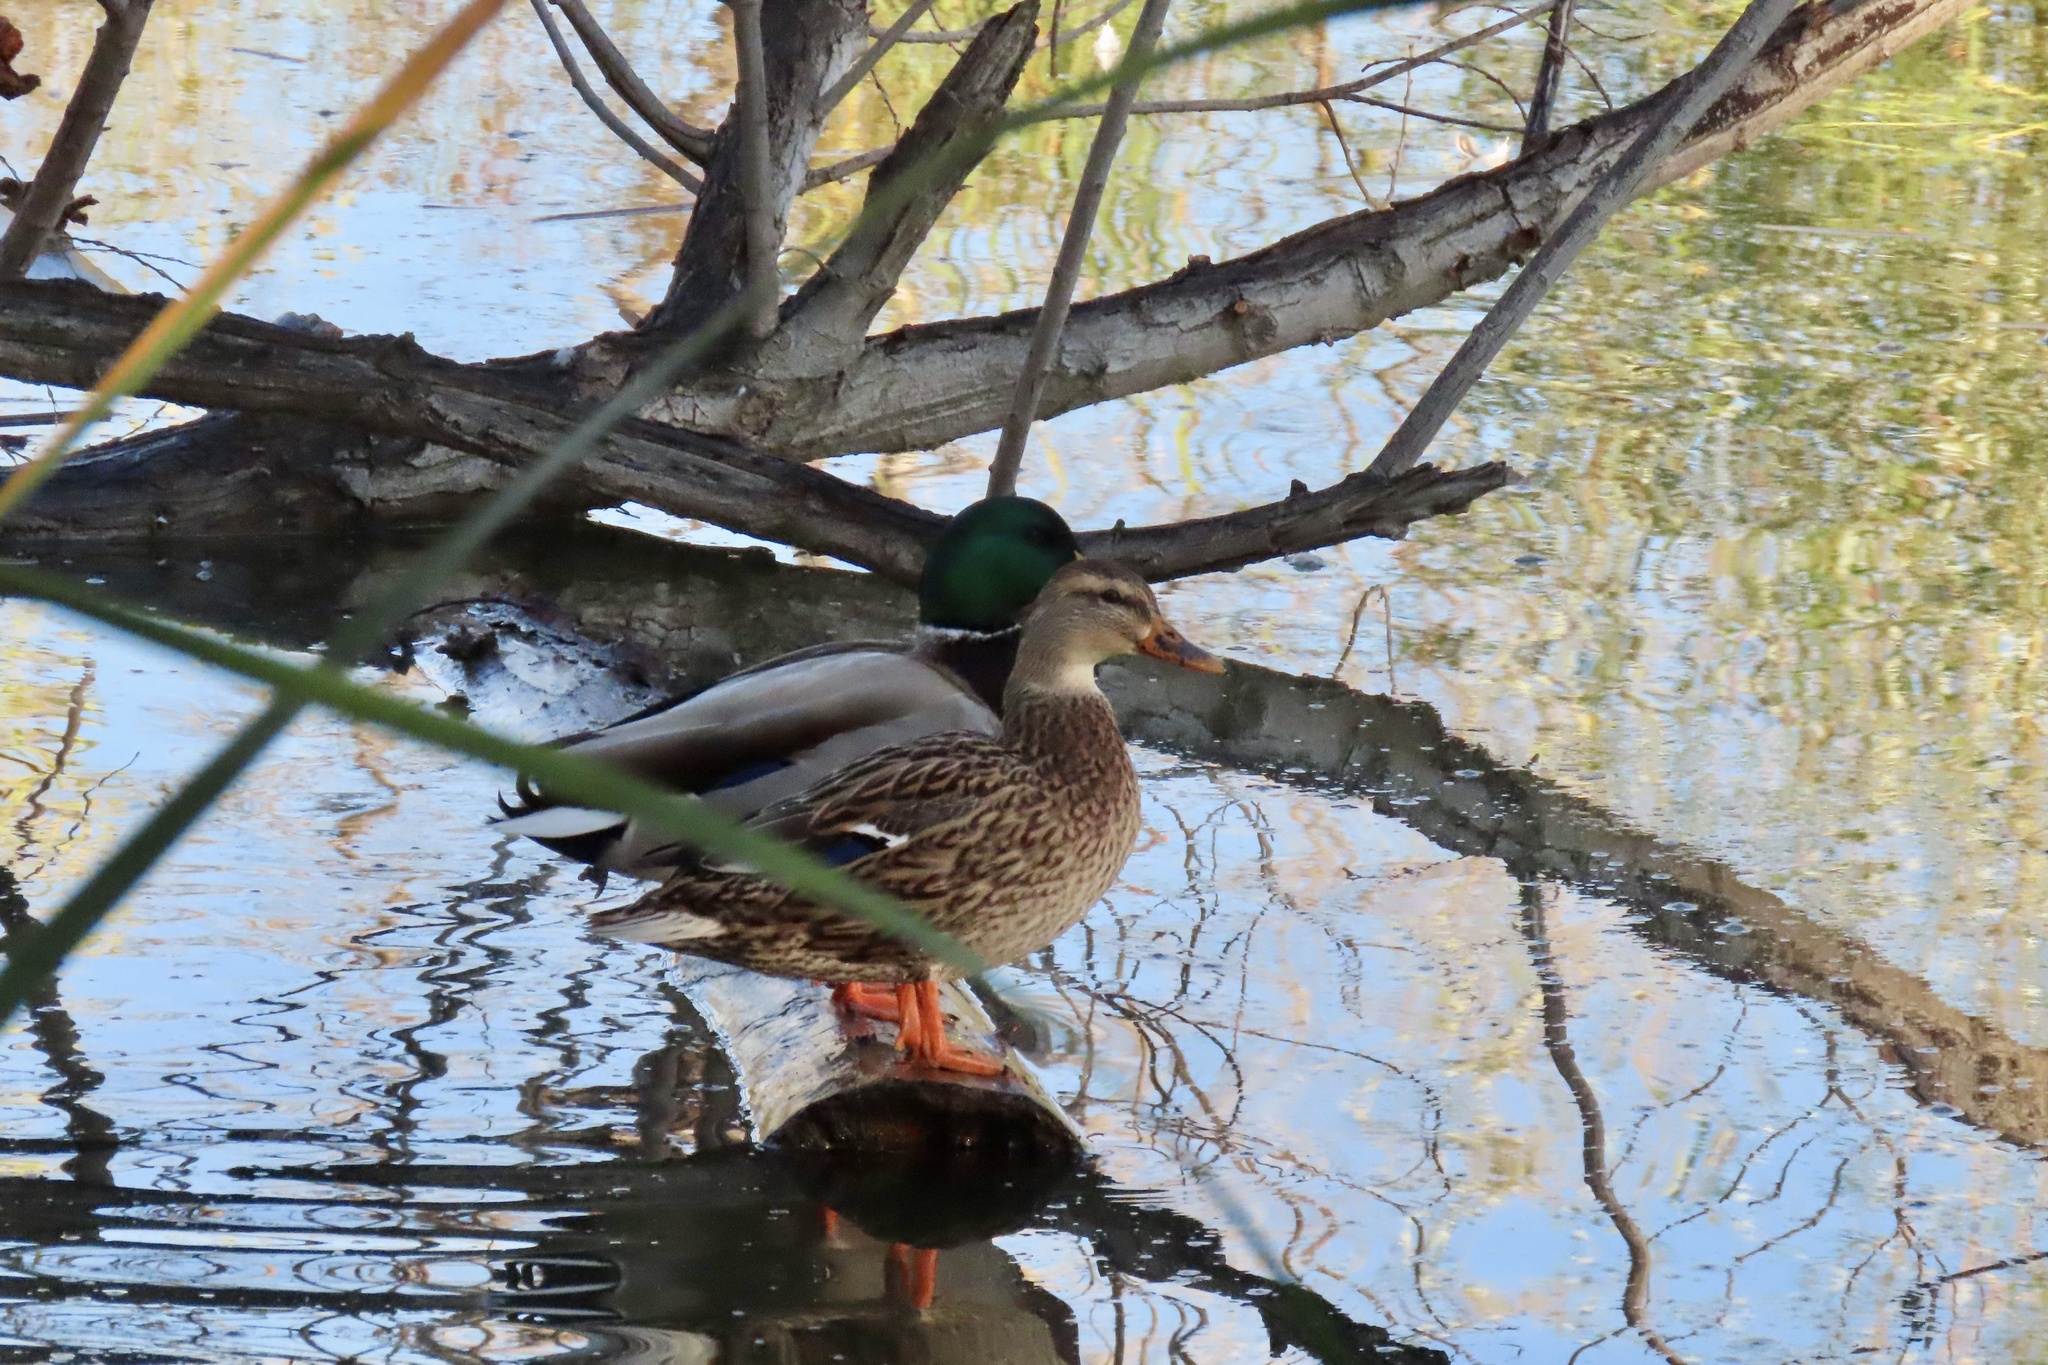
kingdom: Animalia
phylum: Chordata
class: Aves
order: Anseriformes
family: Anatidae
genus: Anas
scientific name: Anas platyrhynchos
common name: Mallard
